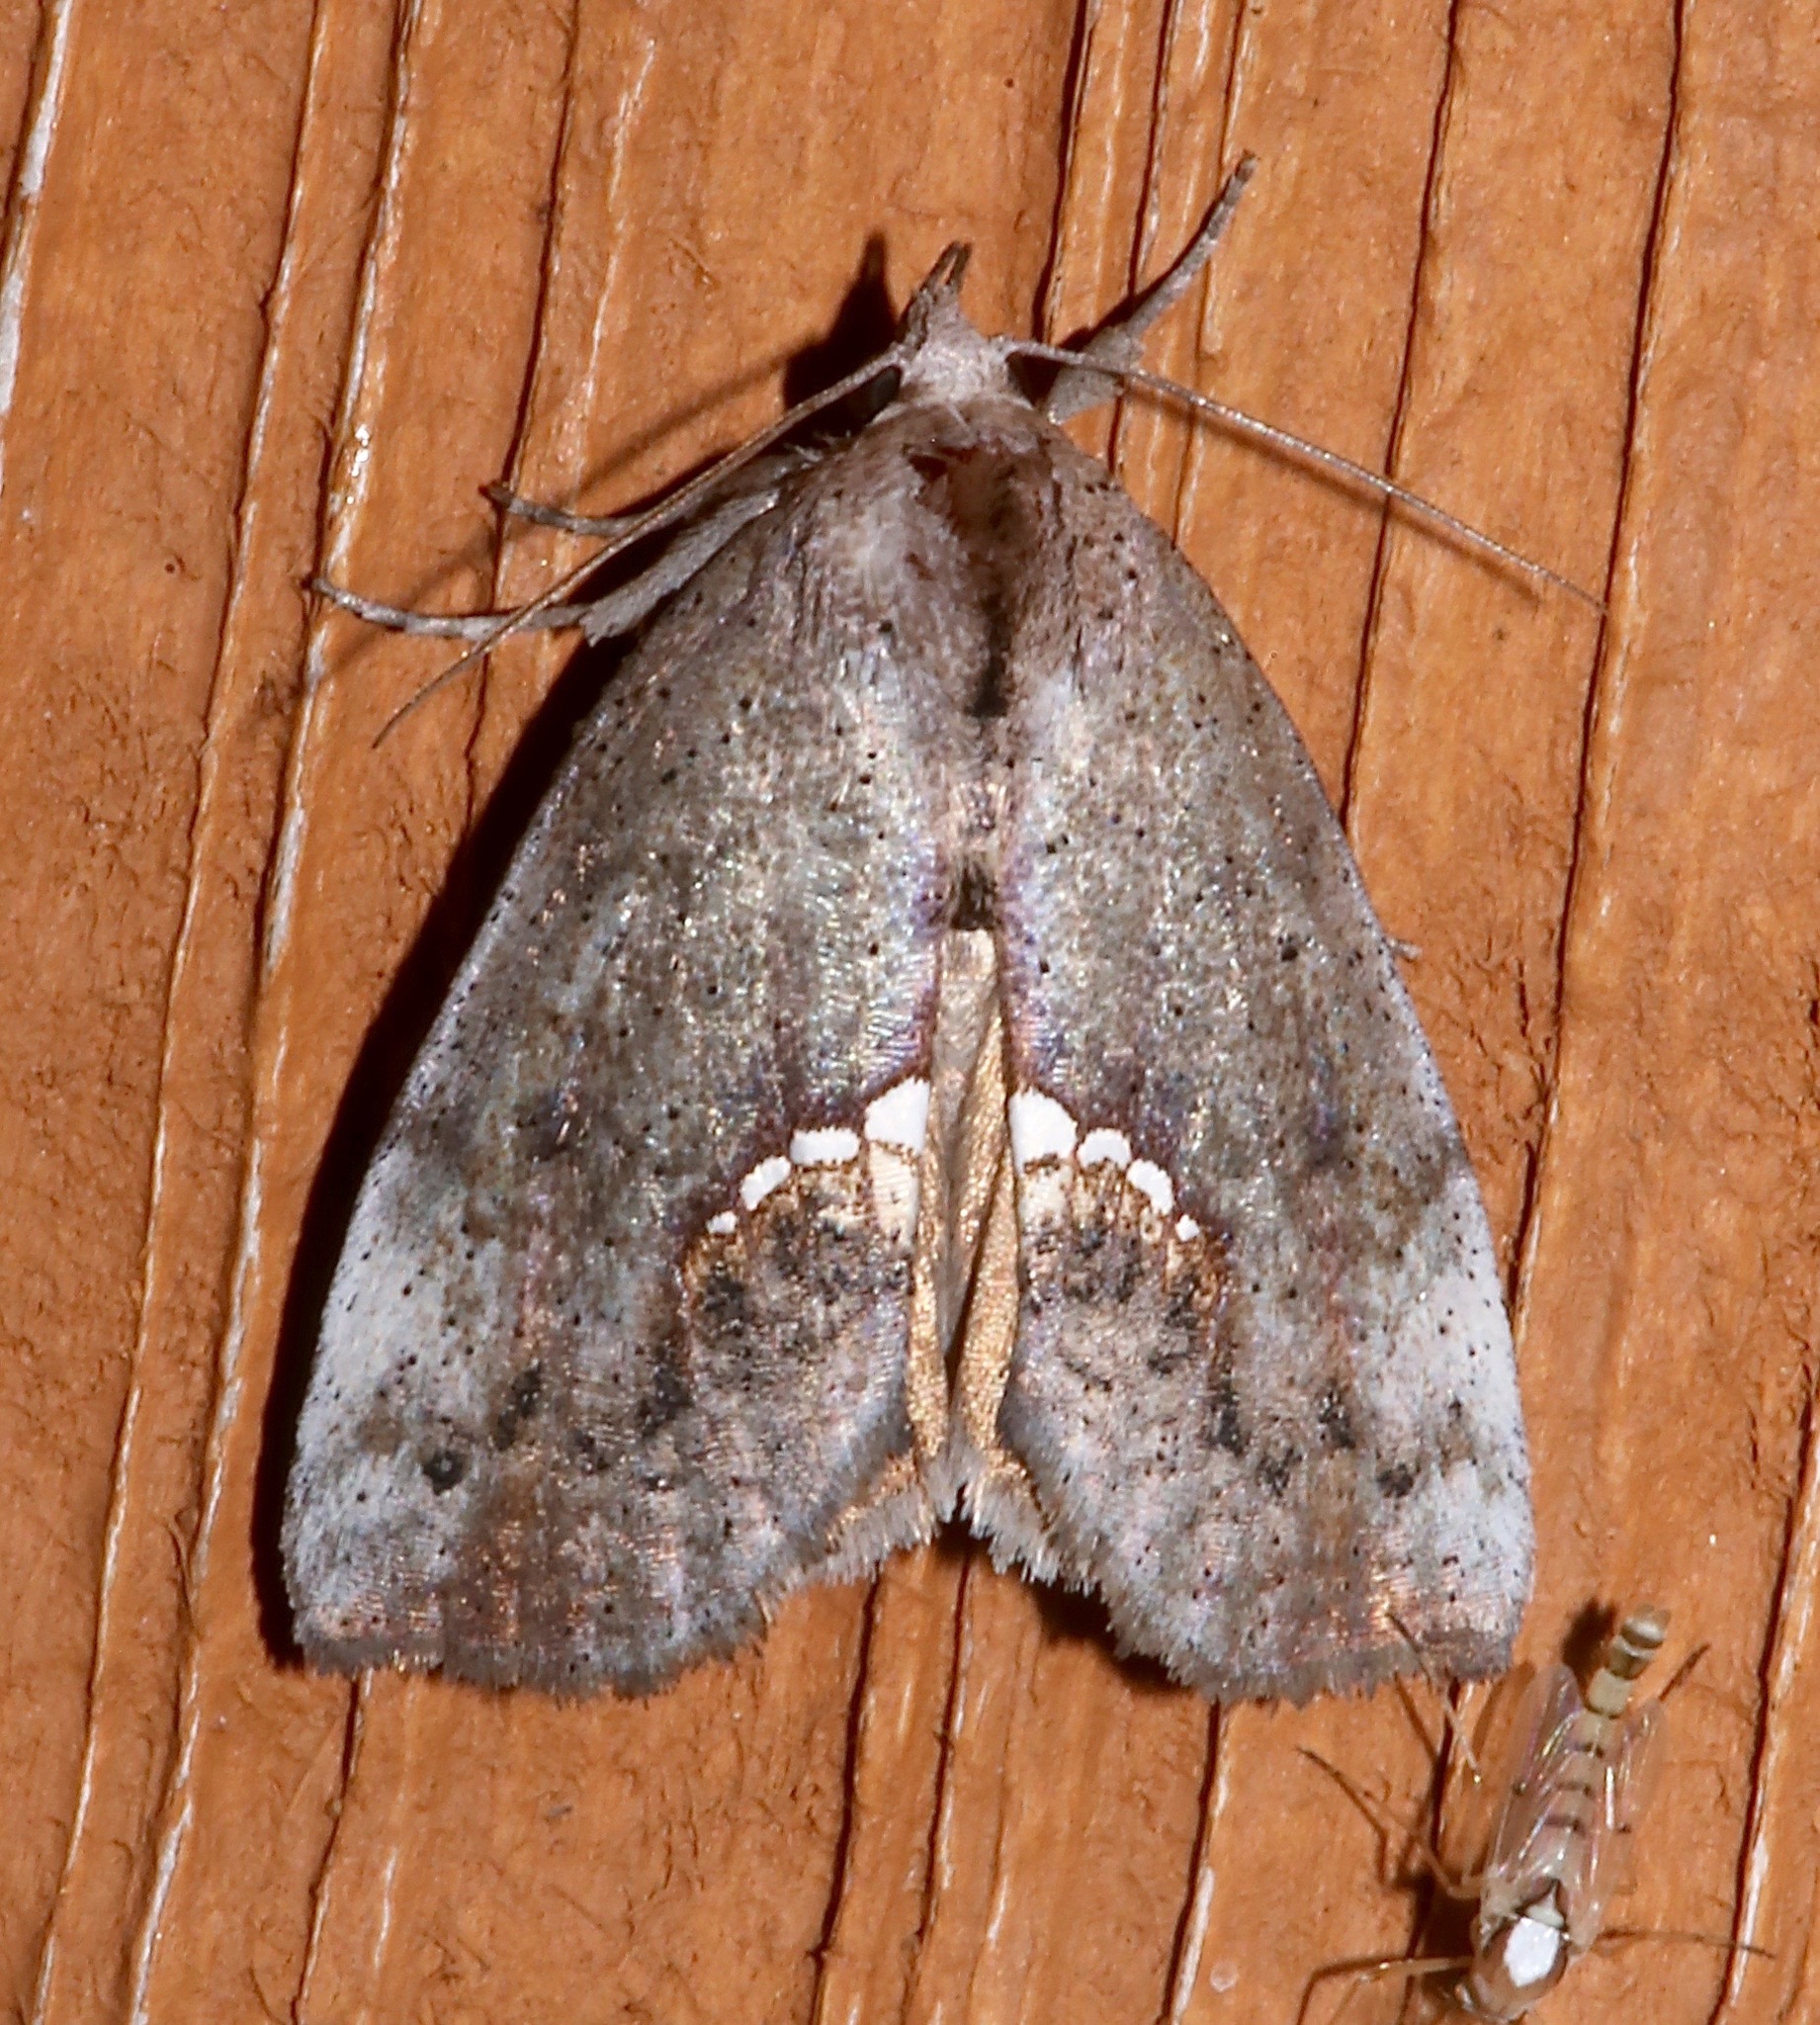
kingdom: Animalia
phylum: Arthropoda
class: Insecta
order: Lepidoptera
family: Erebidae
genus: Hypsoropha
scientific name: Hypsoropha hormos
